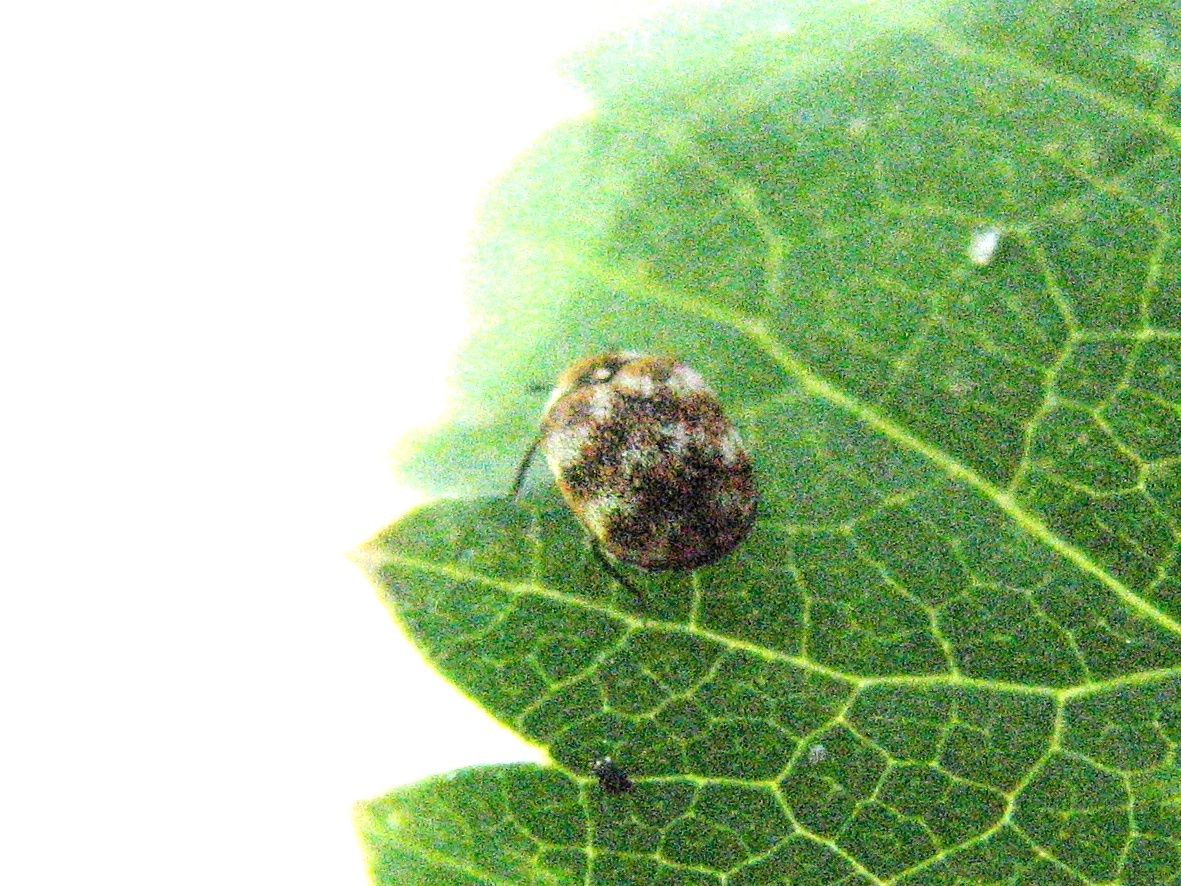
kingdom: Animalia
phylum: Arthropoda
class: Insecta
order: Coleoptera
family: Dermestidae
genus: Anthrenus
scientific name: Anthrenus verbasci
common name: Varied carpet beetle
